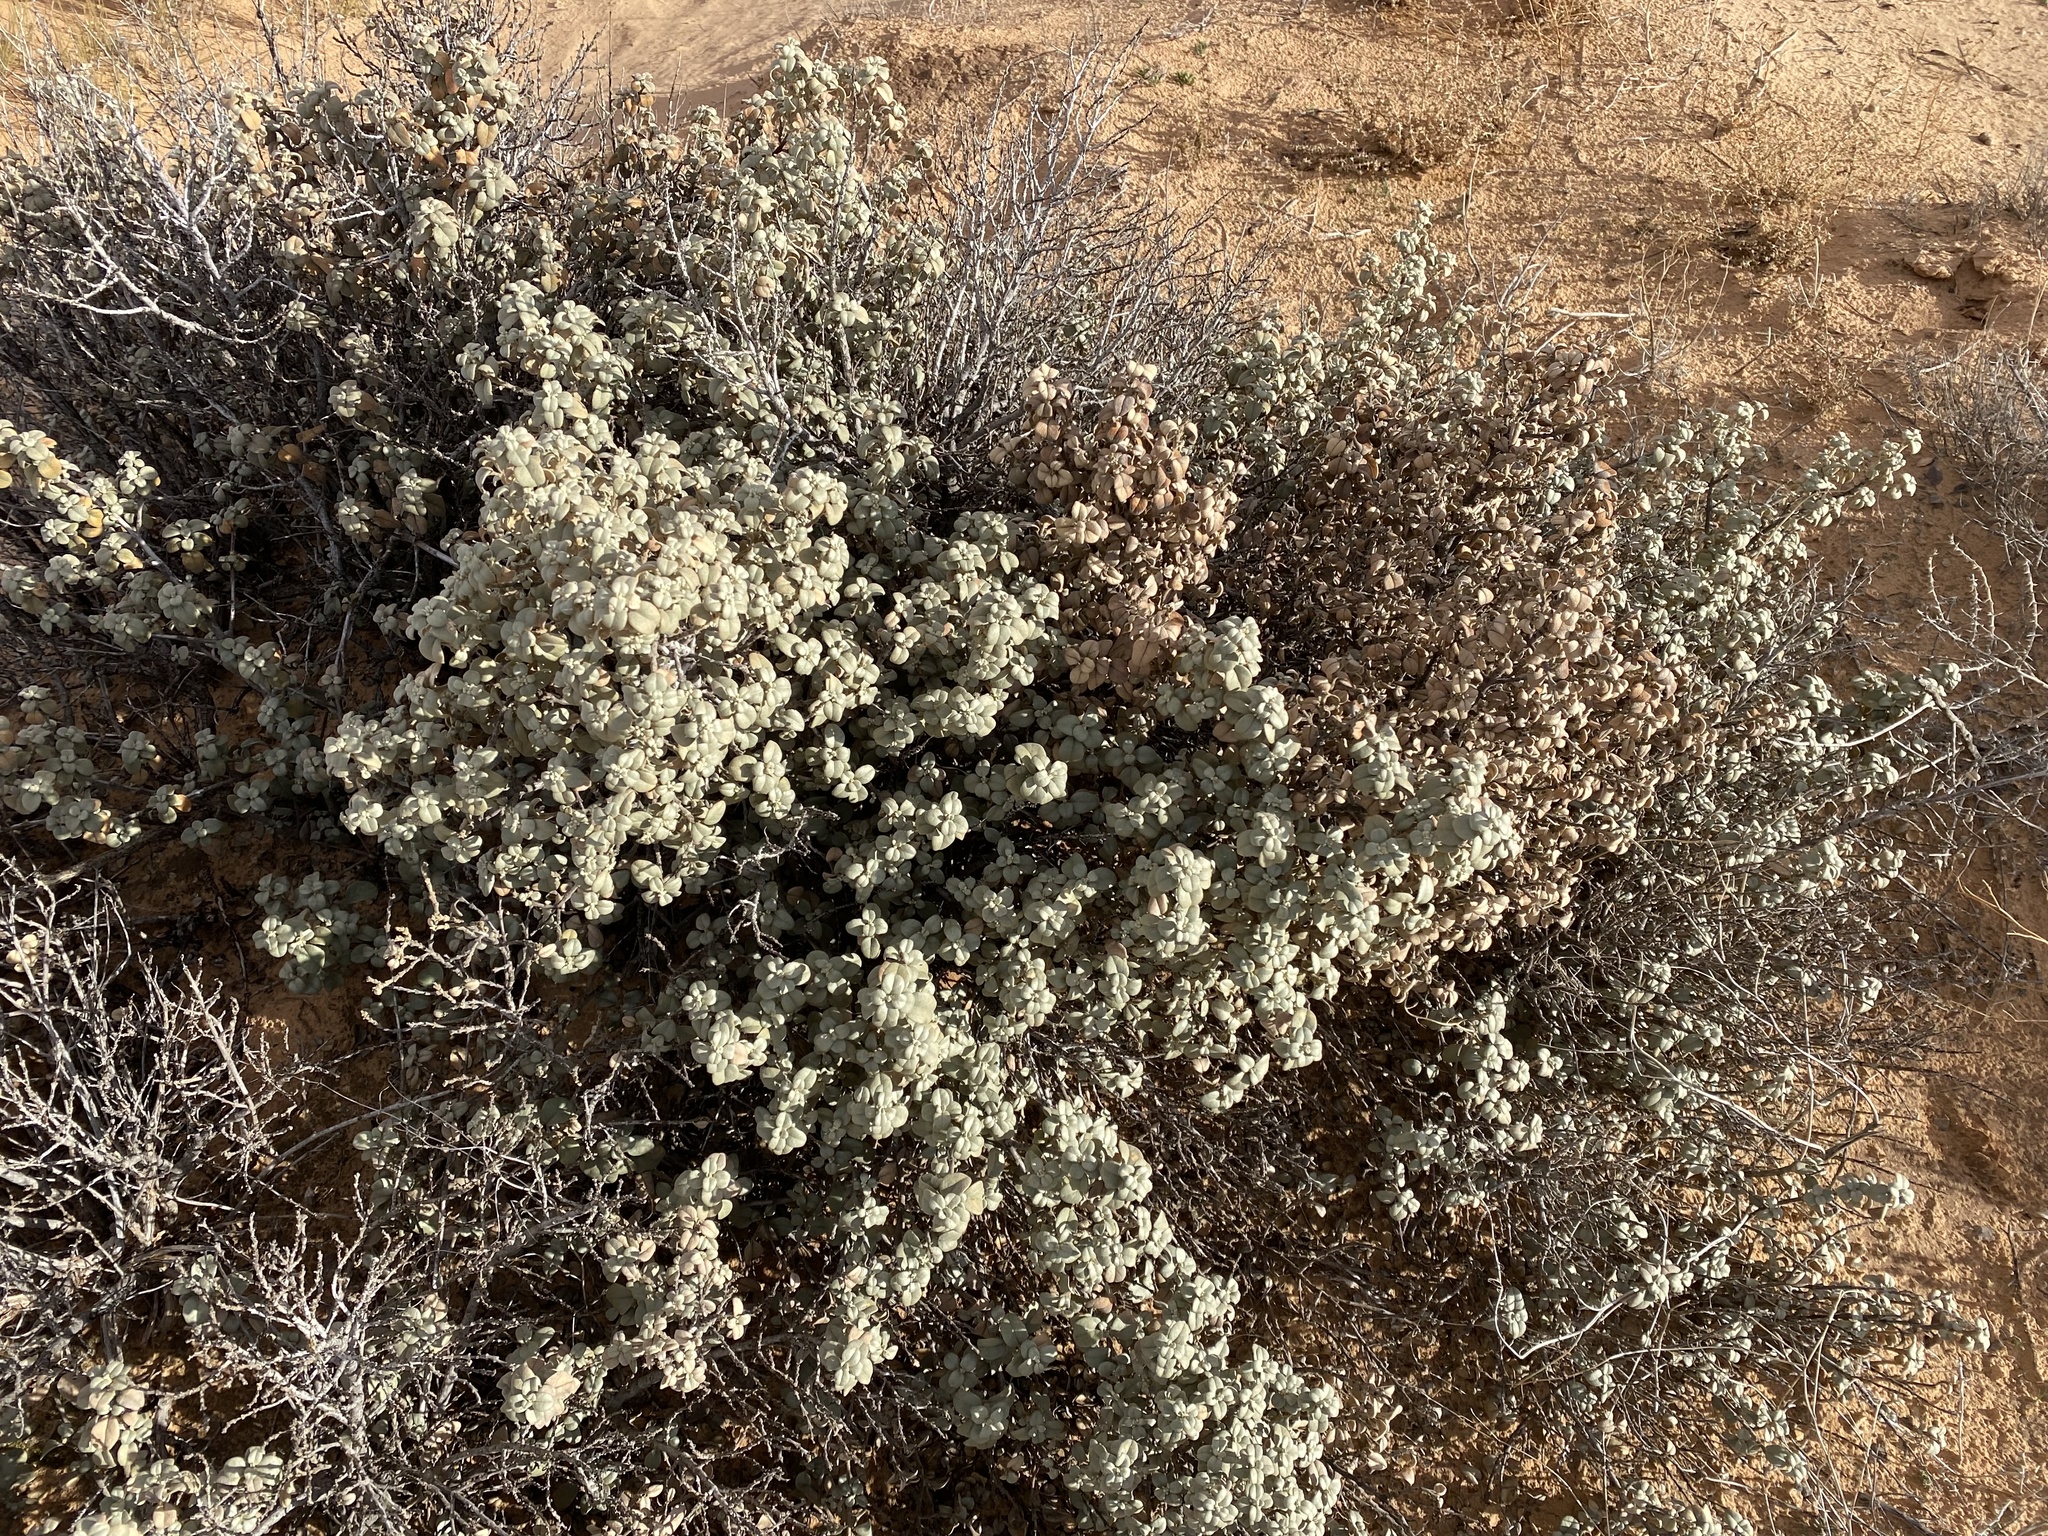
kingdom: Plantae
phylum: Tracheophyta
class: Magnoliopsida
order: Rosales
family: Elaeagnaceae
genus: Shepherdia
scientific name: Shepherdia rotundifolia
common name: Silverscale
